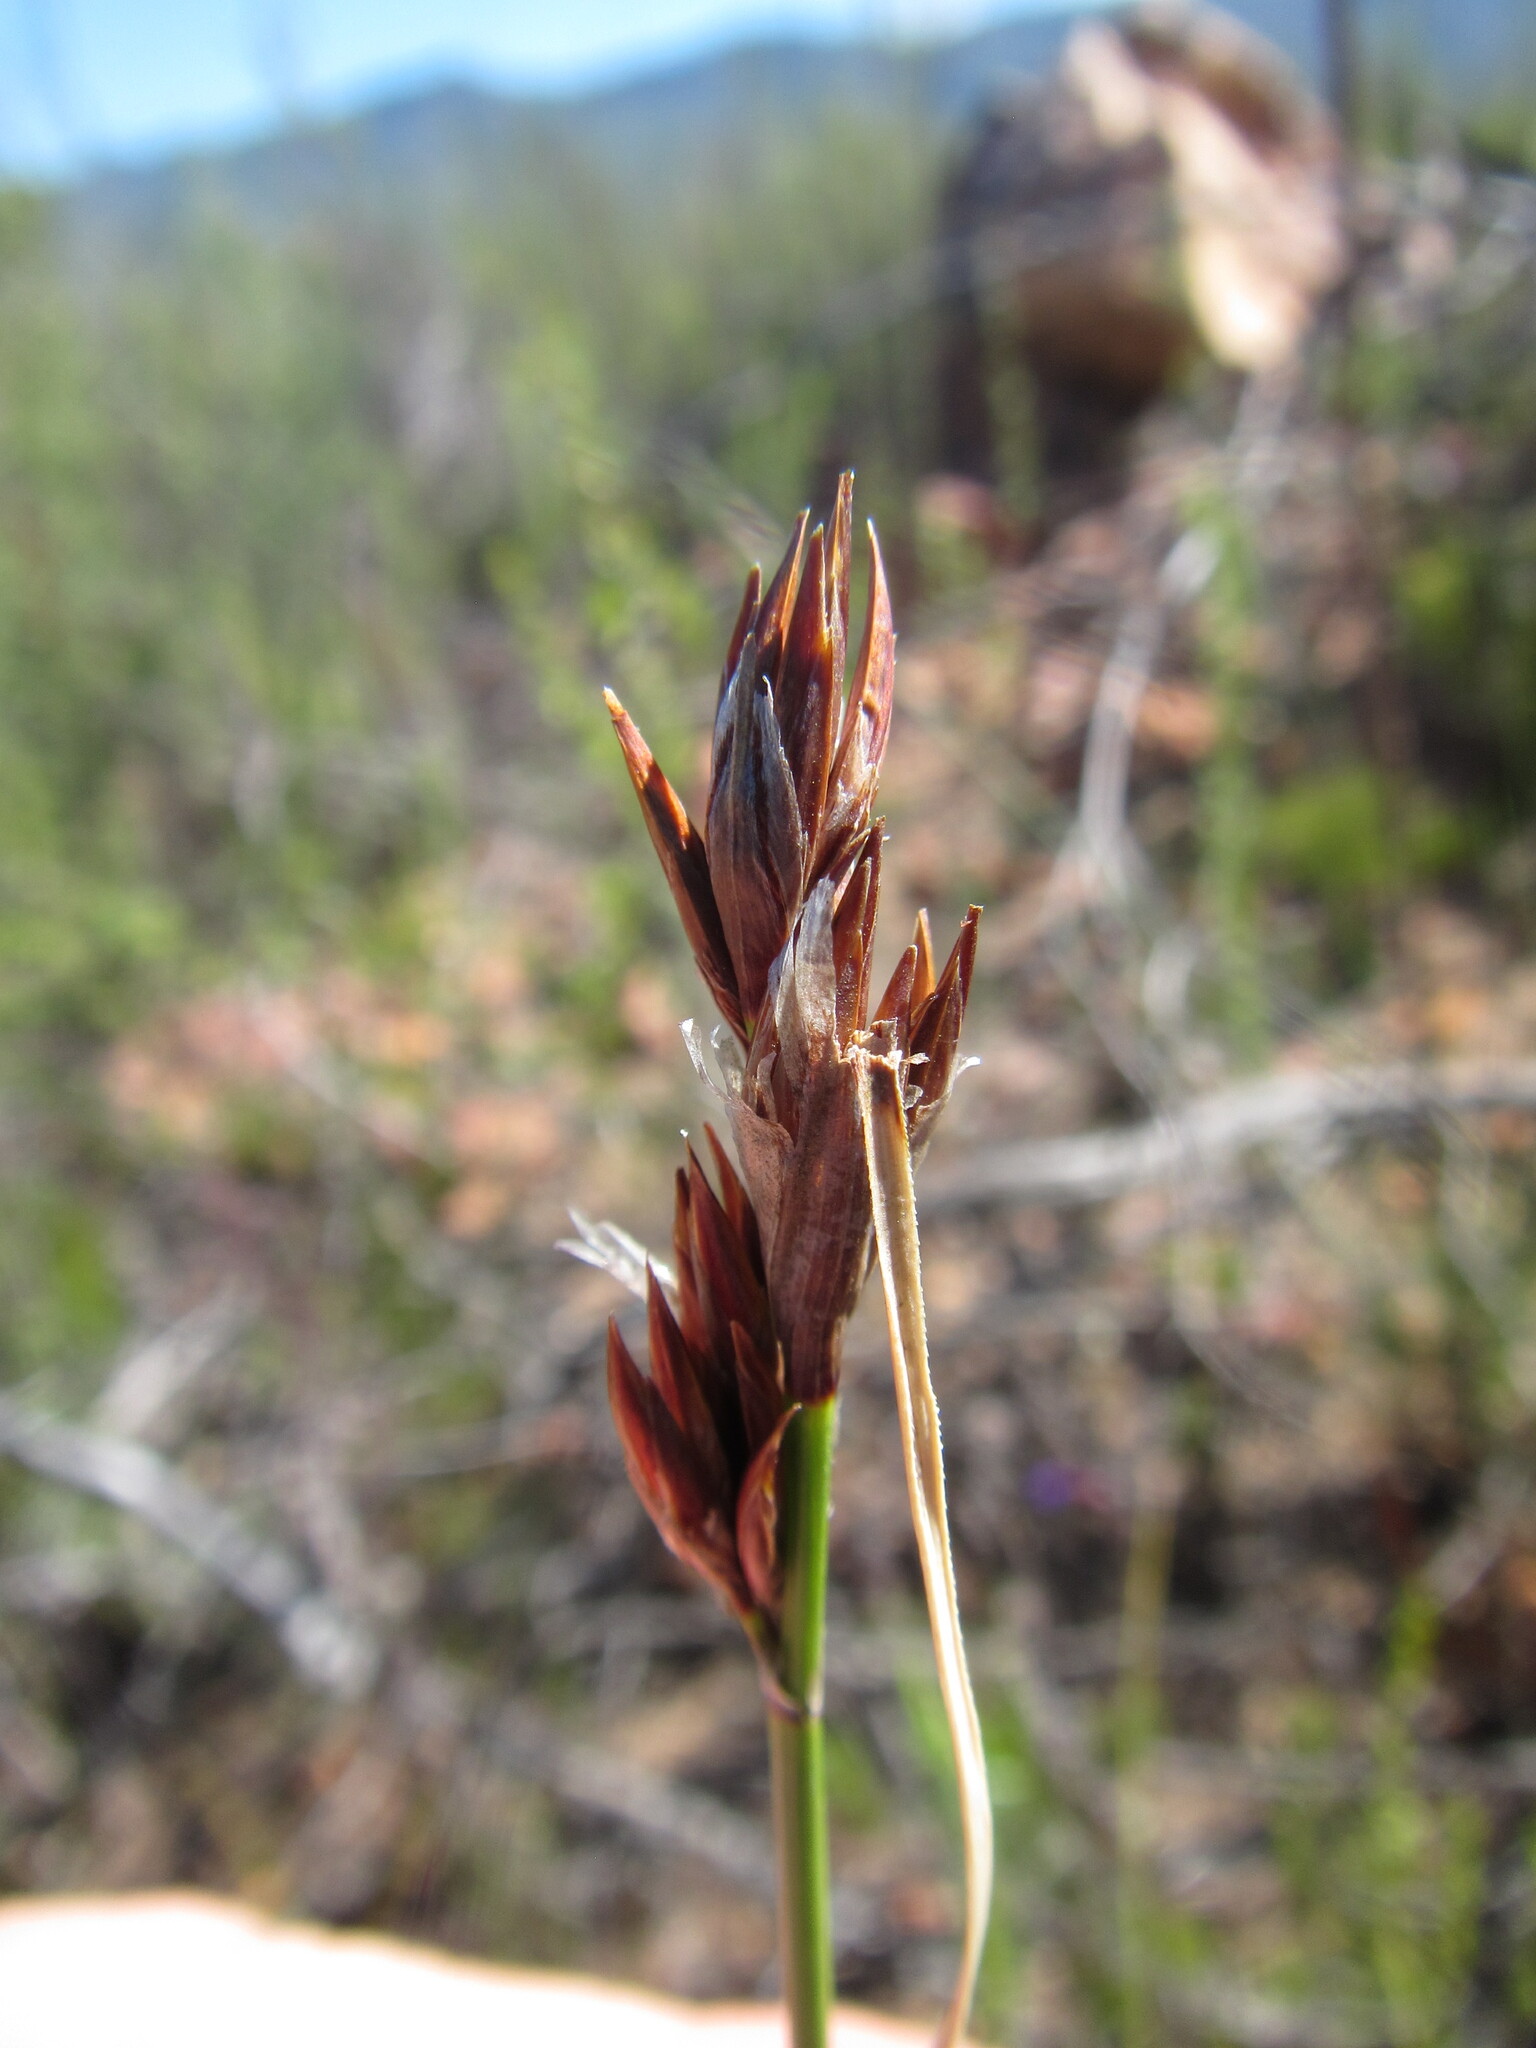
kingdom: Plantae
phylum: Tracheophyta
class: Liliopsida
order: Poales
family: Cyperaceae
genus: Schoenus
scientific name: Schoenus megacarpus
